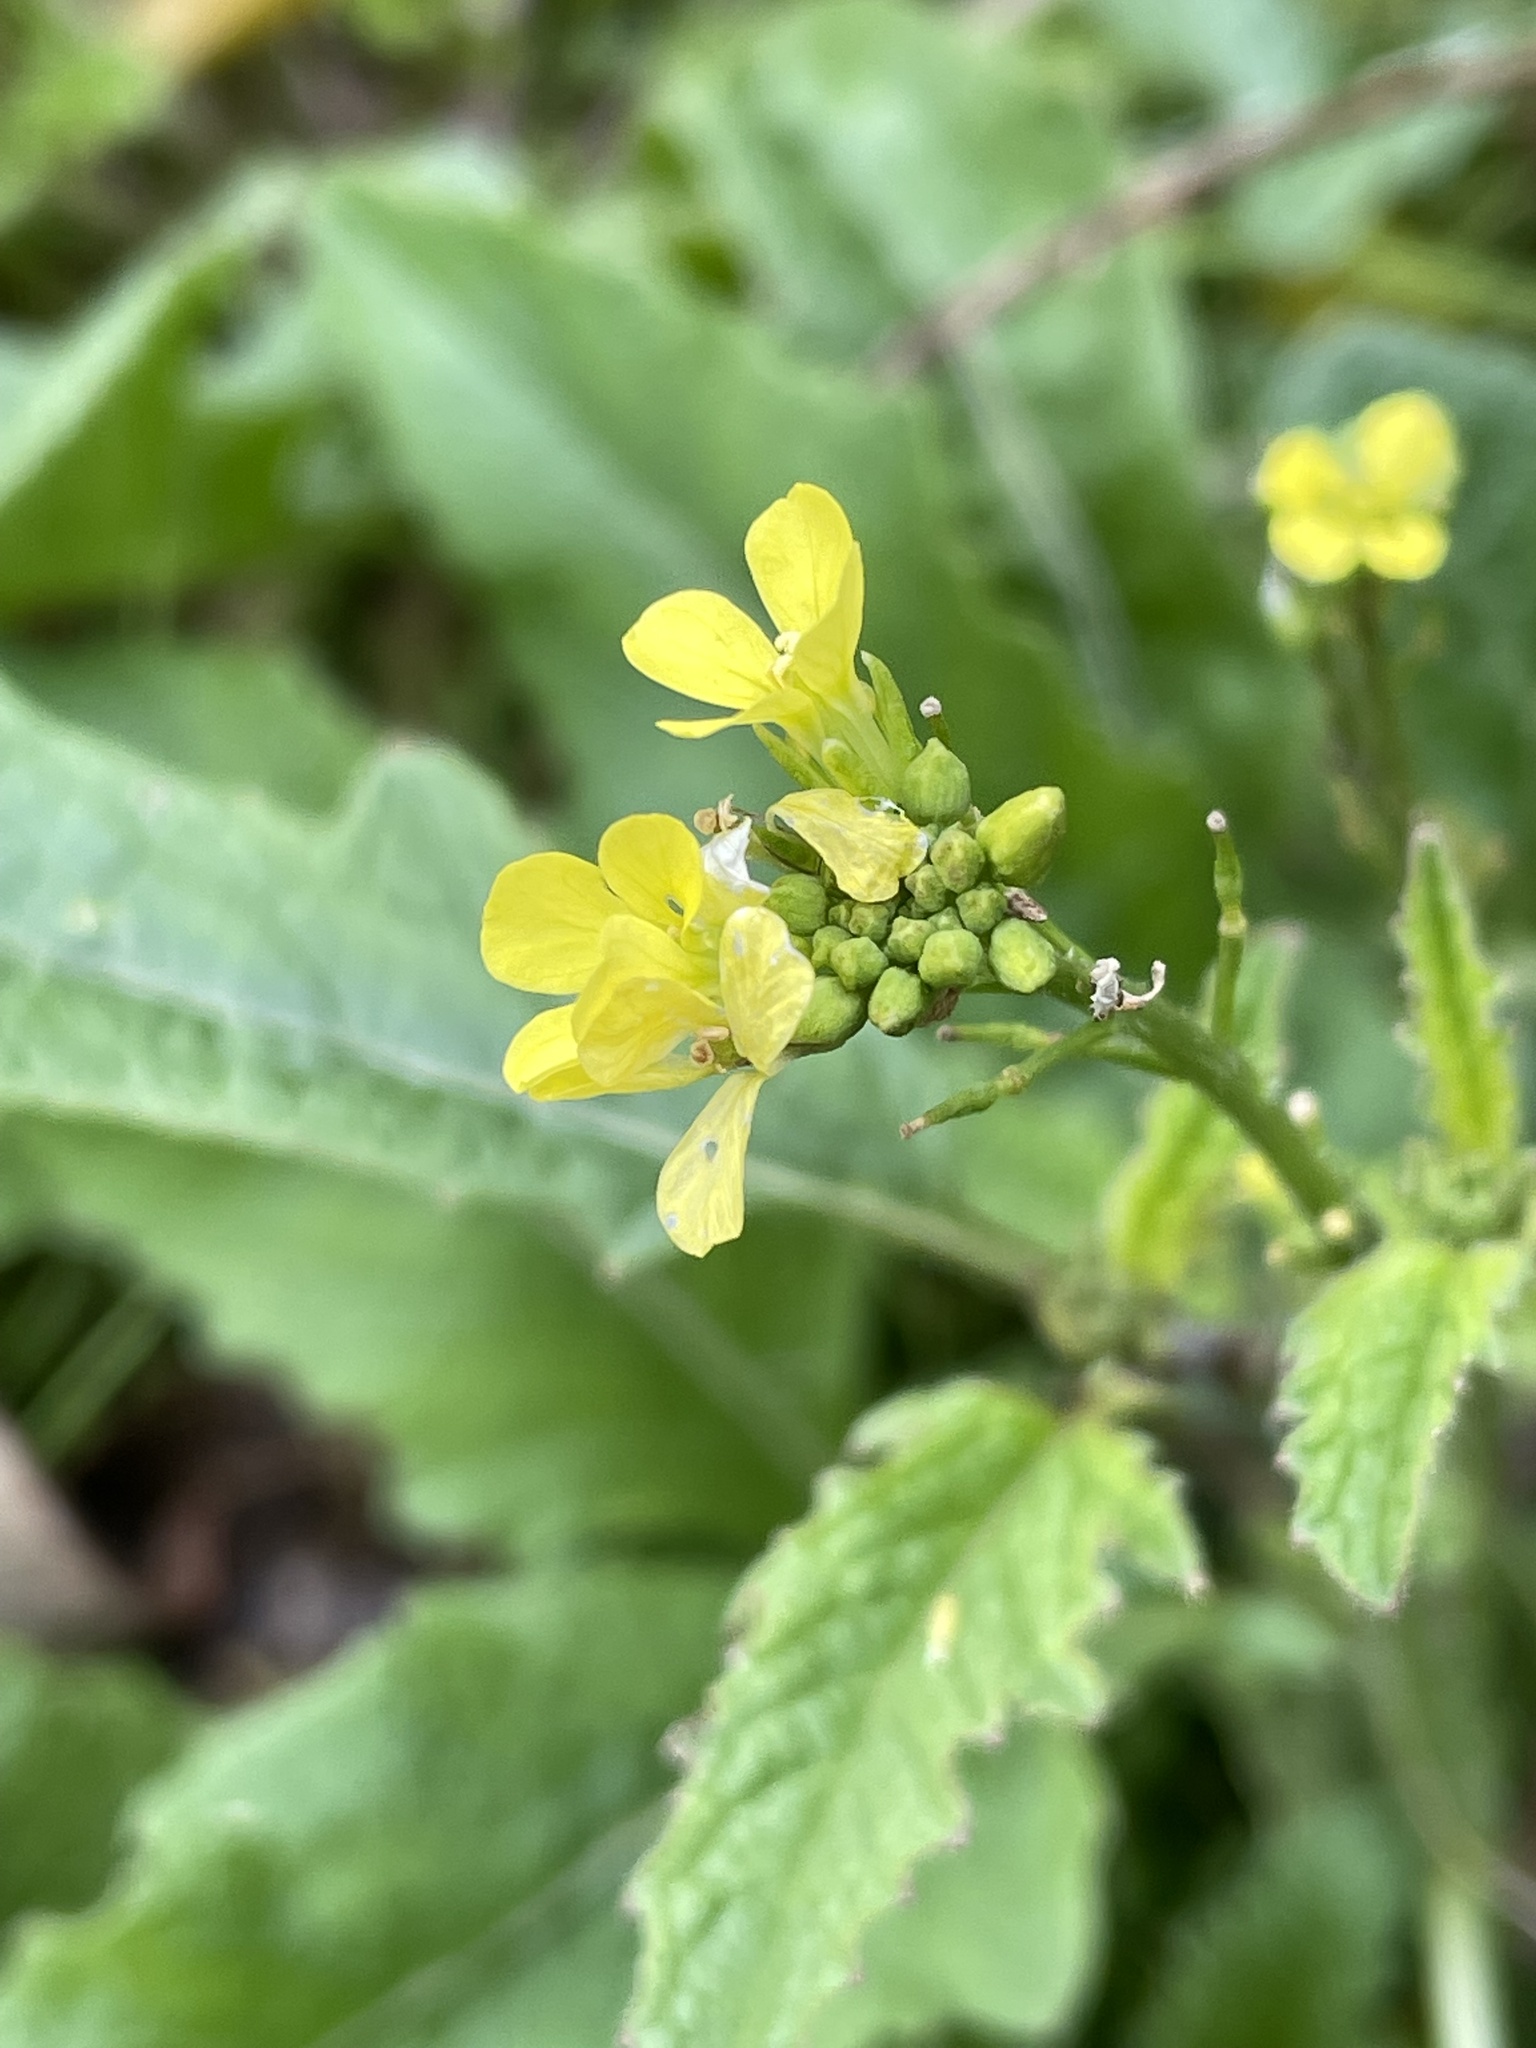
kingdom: Plantae
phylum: Tracheophyta
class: Magnoliopsida
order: Brassicales
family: Brassicaceae
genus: Rapistrum
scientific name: Rapistrum rugosum
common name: Annual bastardcabbage
